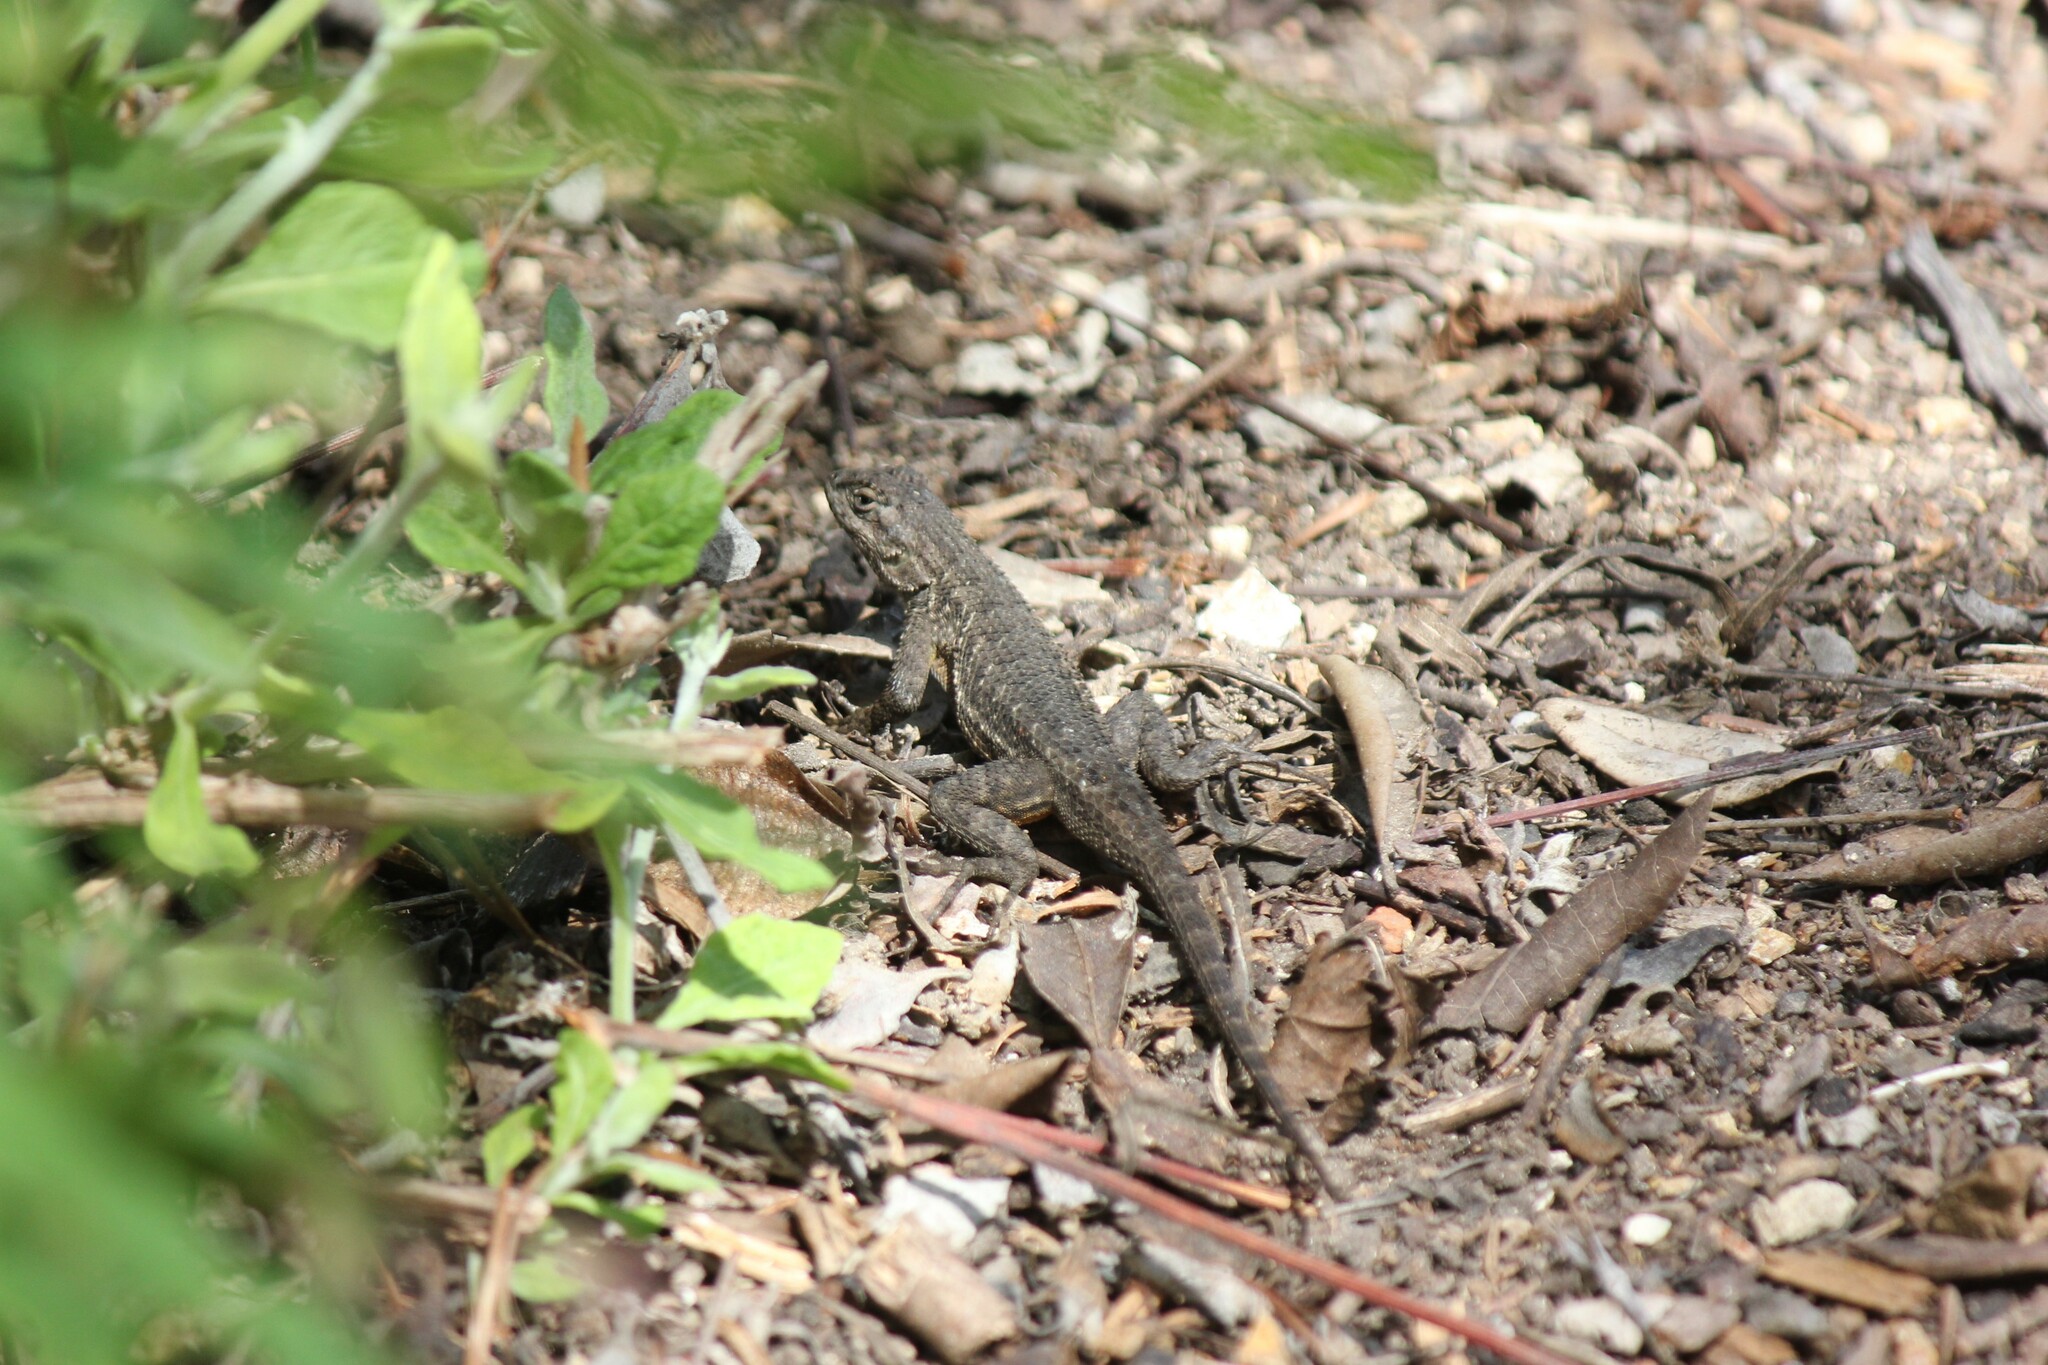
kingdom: Animalia
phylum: Chordata
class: Squamata
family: Phrynosomatidae
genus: Sceloporus
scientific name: Sceloporus occidentalis
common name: Western fence lizard
